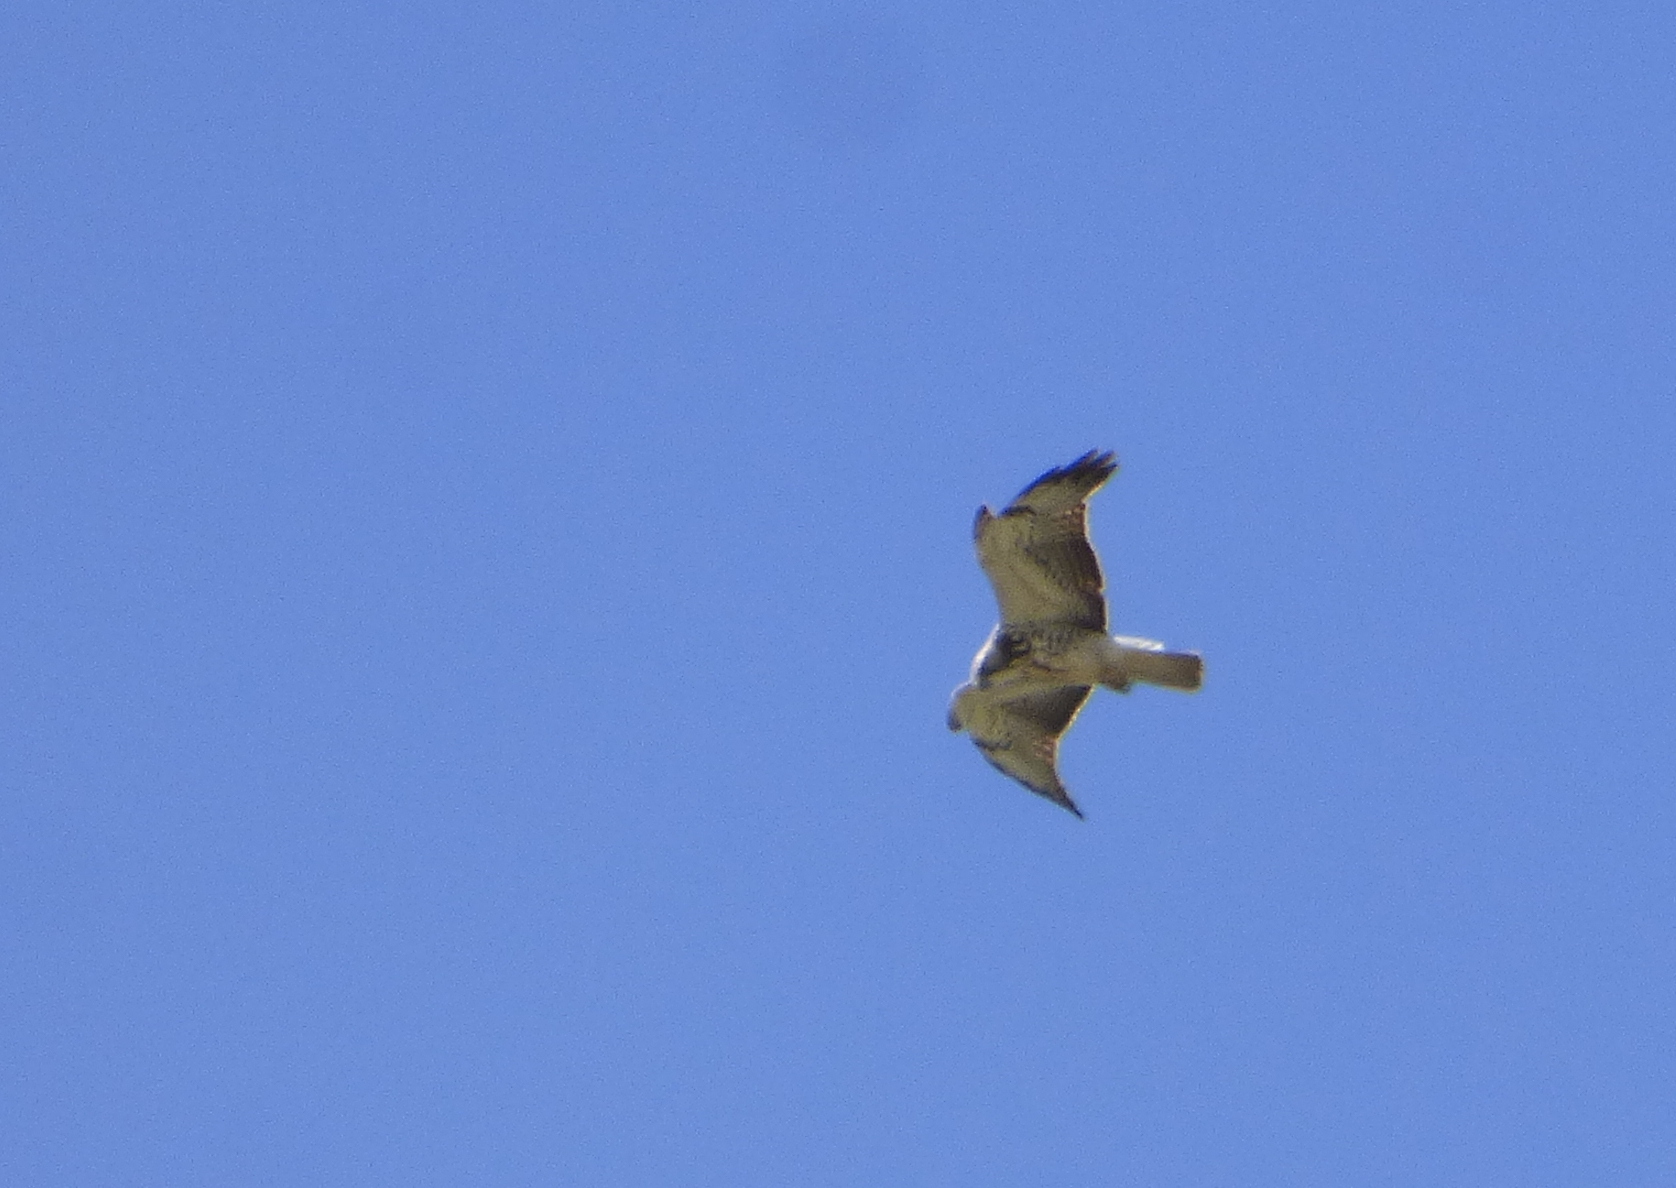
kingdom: Animalia
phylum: Chordata
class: Aves
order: Accipitriformes
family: Accipitridae
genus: Buteo
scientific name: Buteo swainsoni
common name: Swainson's hawk
